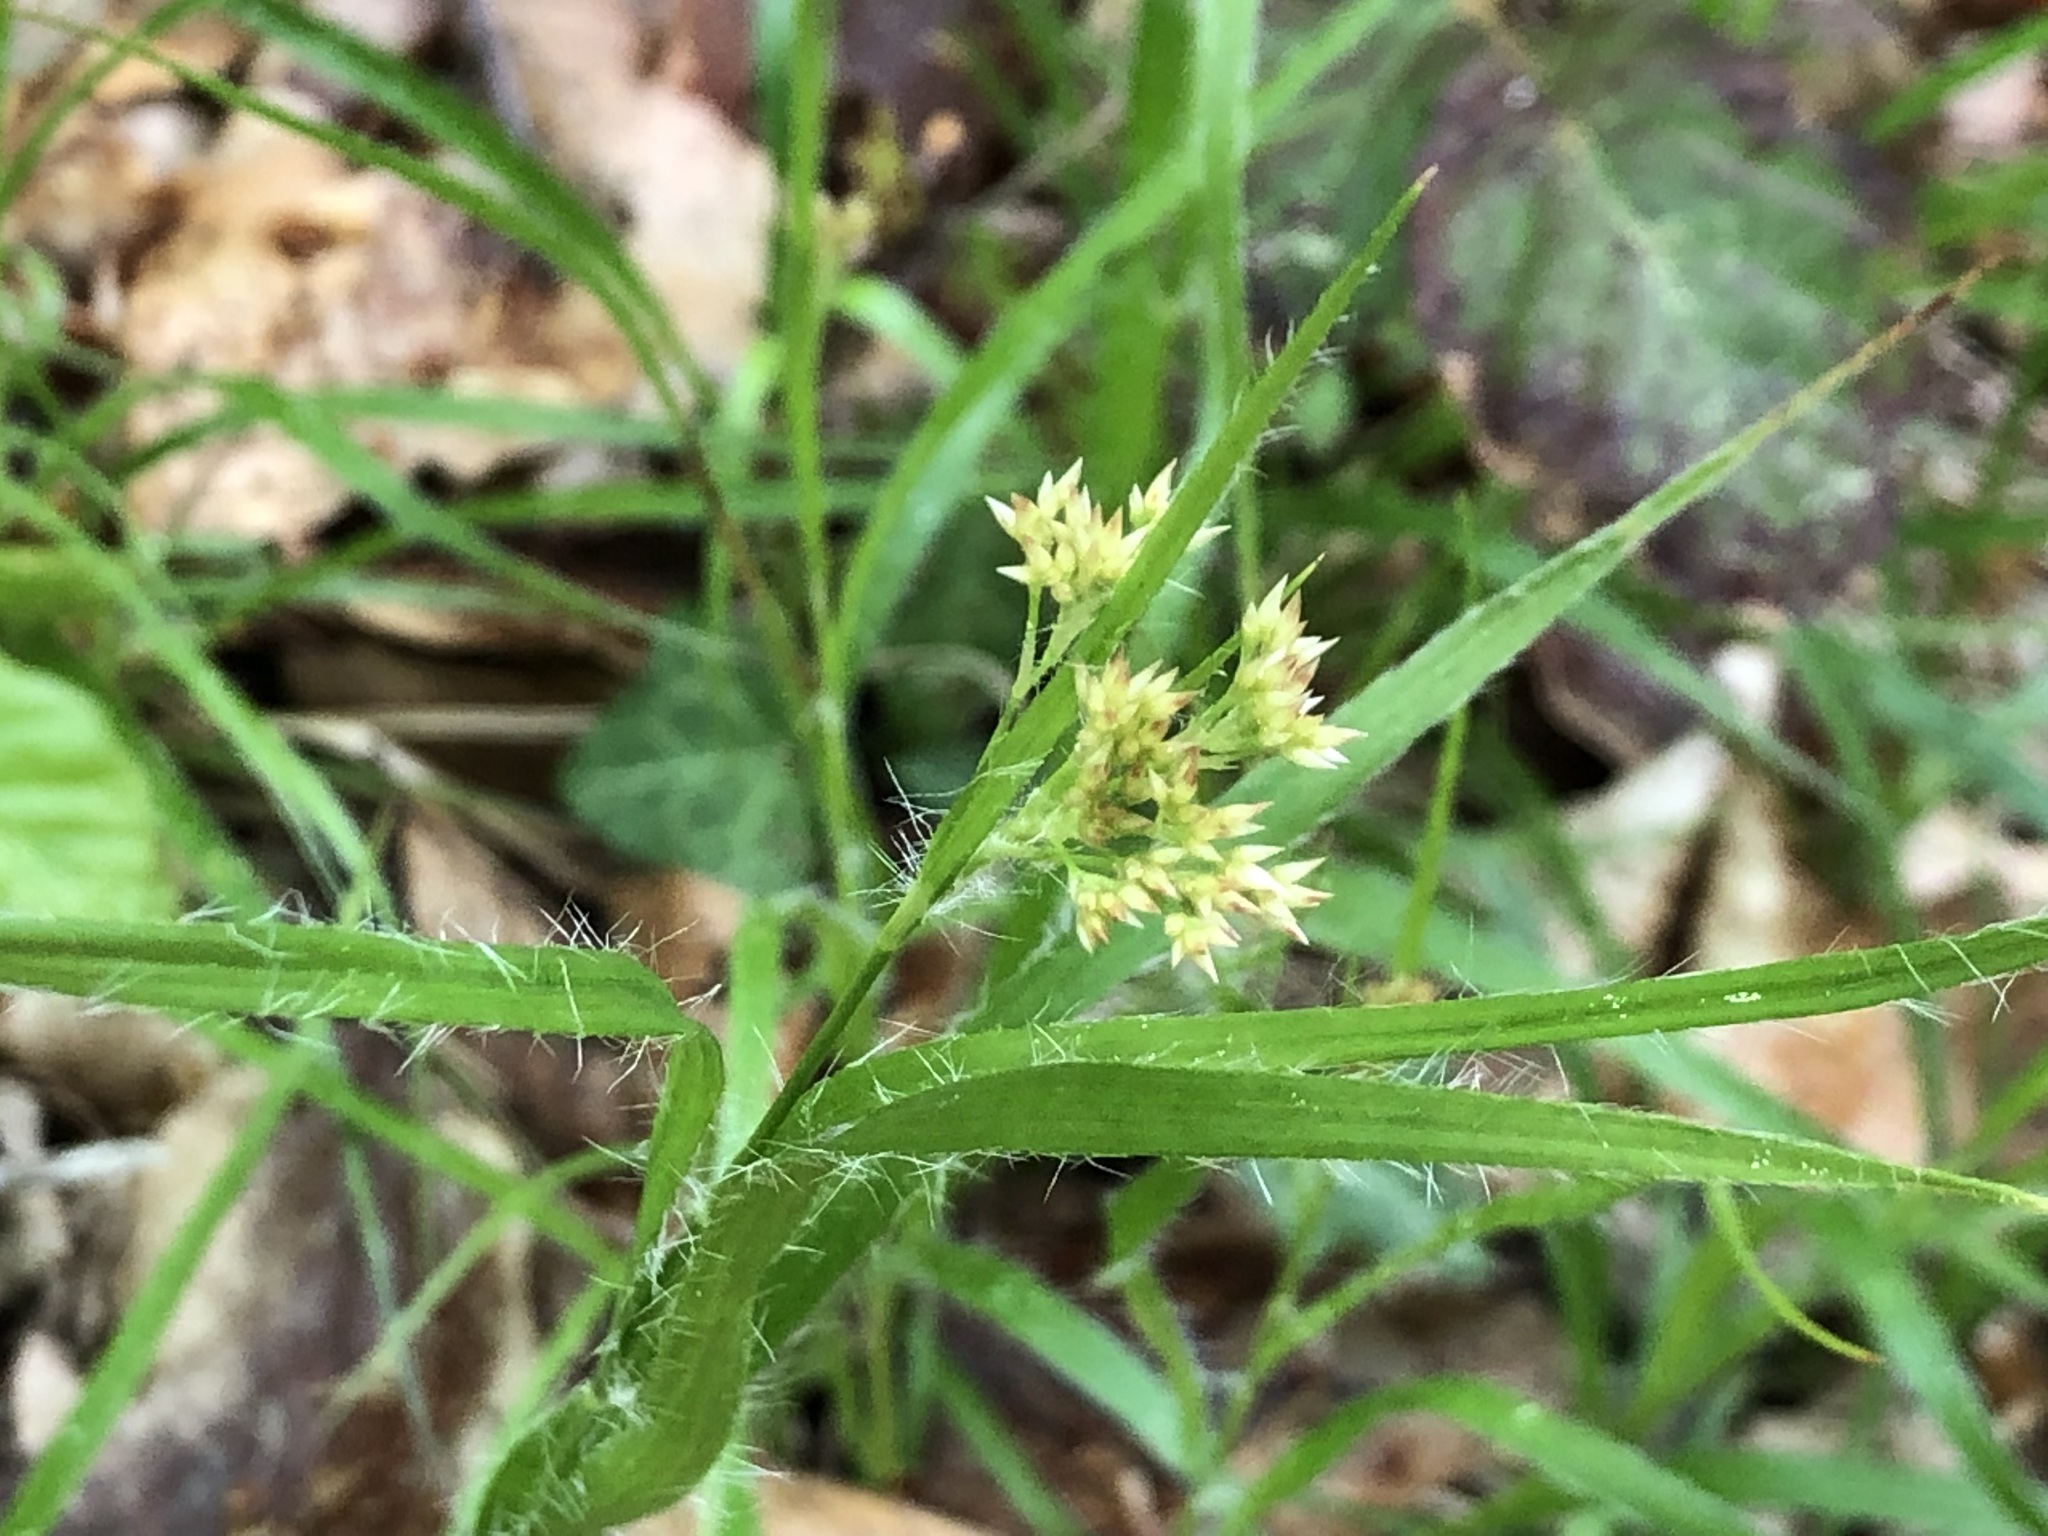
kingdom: Plantae
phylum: Tracheophyta
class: Liliopsida
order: Poales
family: Juncaceae
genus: Luzula
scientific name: Luzula luzuloides
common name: White wood-rush
